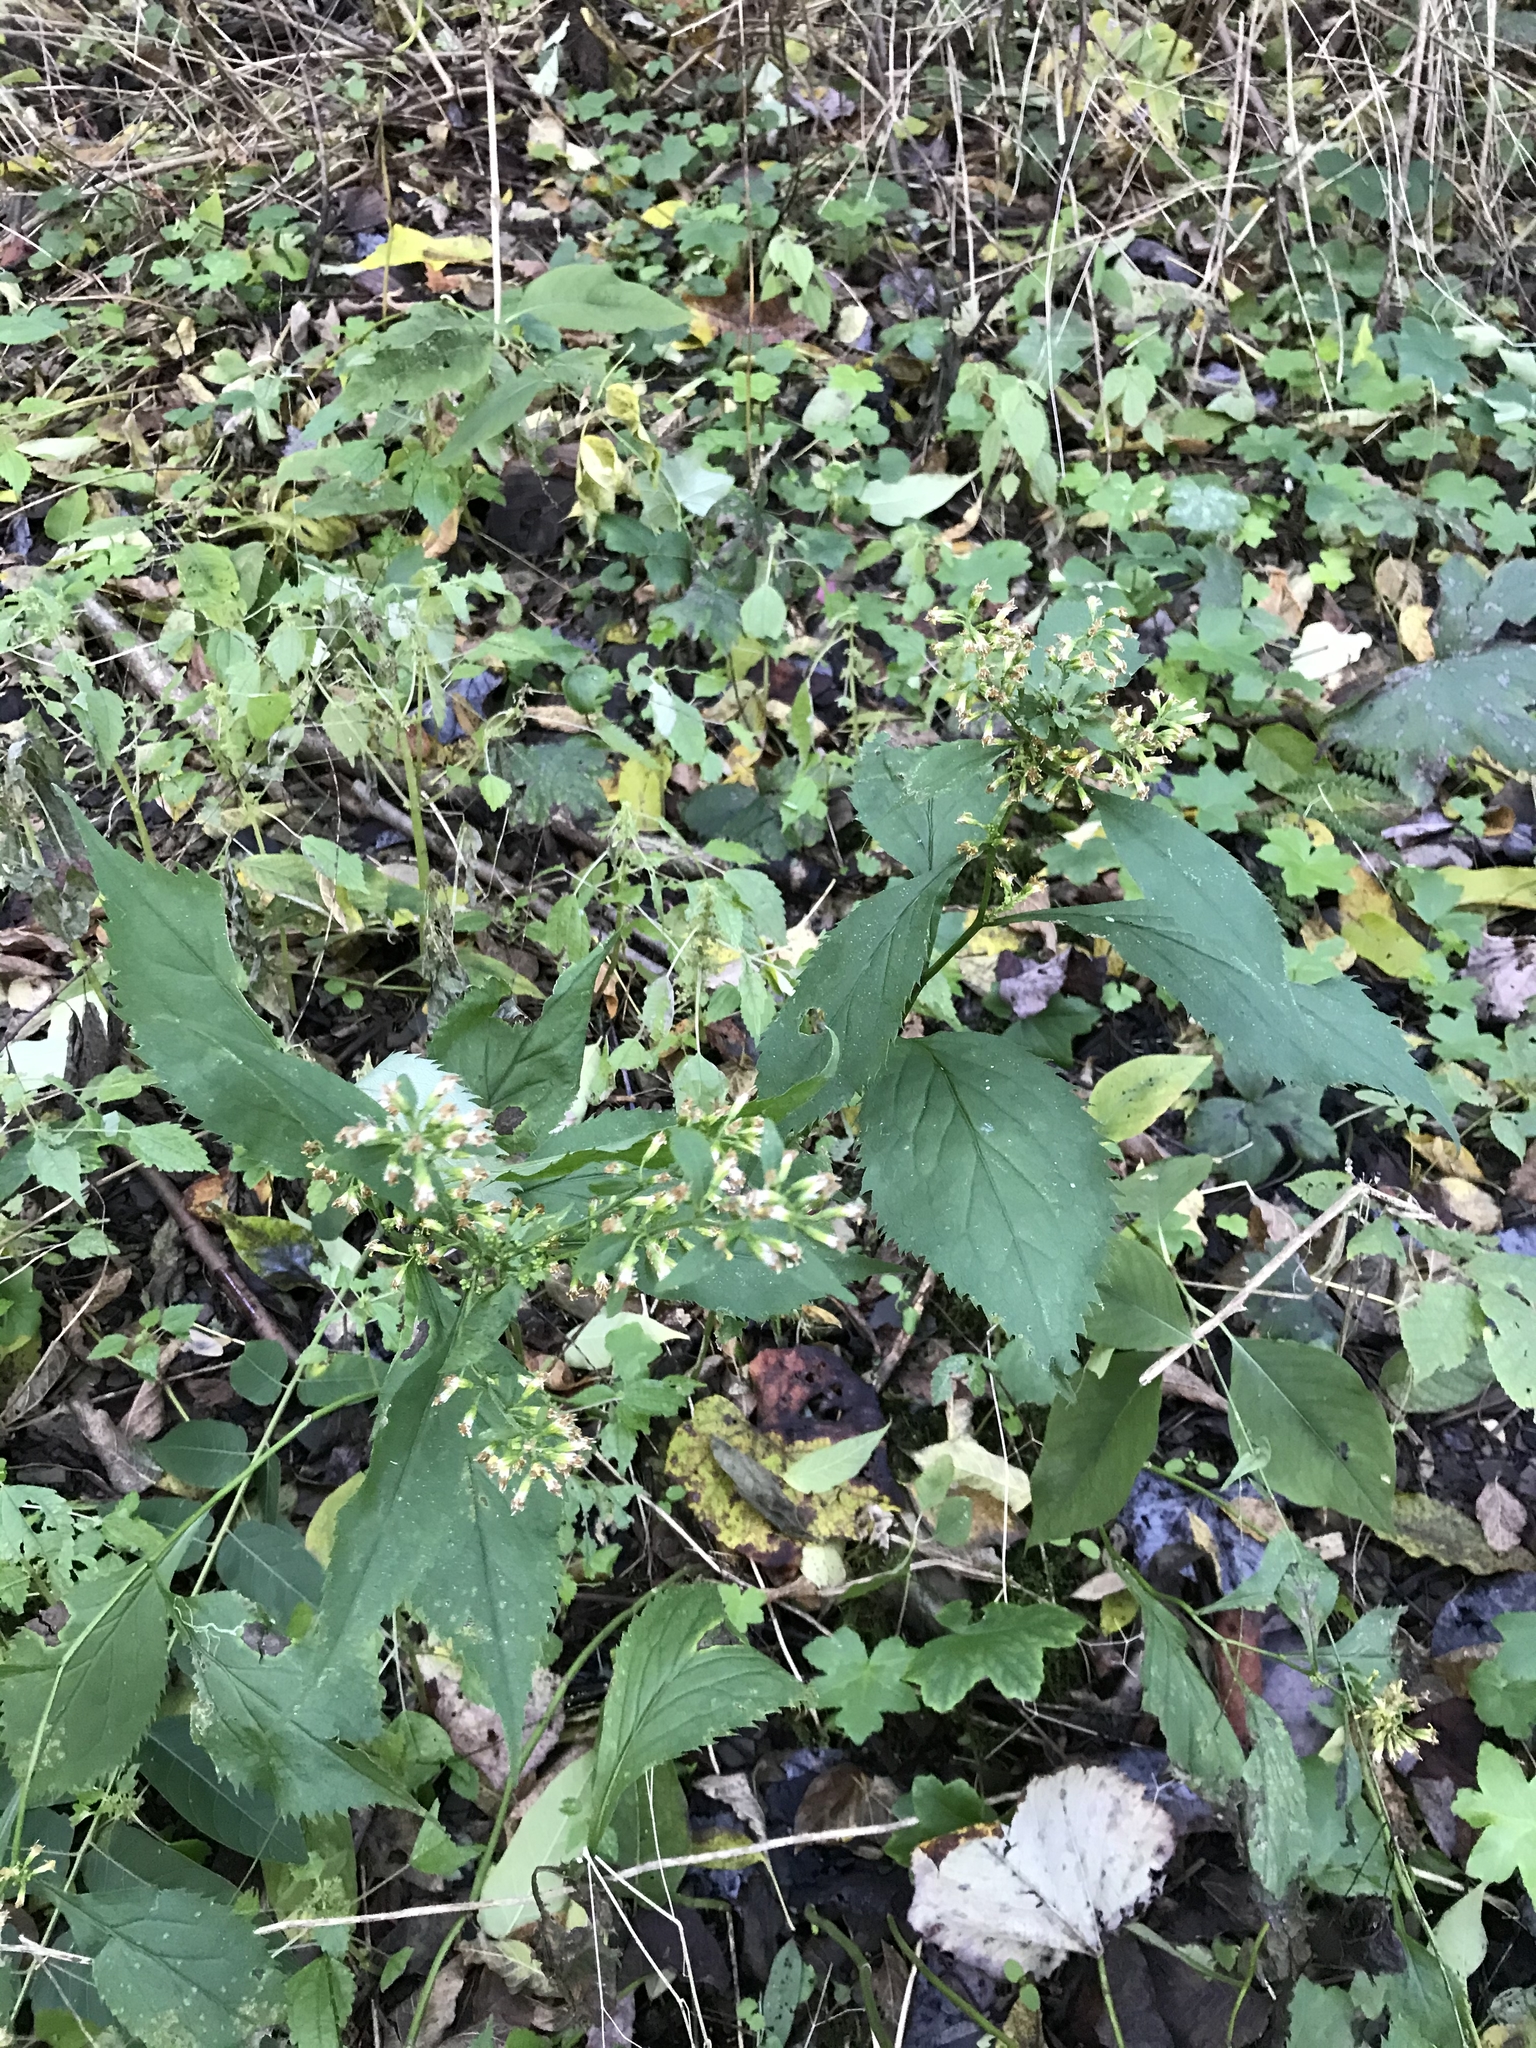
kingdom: Plantae
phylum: Tracheophyta
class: Magnoliopsida
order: Asterales
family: Asteraceae
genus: Solidago
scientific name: Solidago flexicaulis
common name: Zig-zag goldenrod
